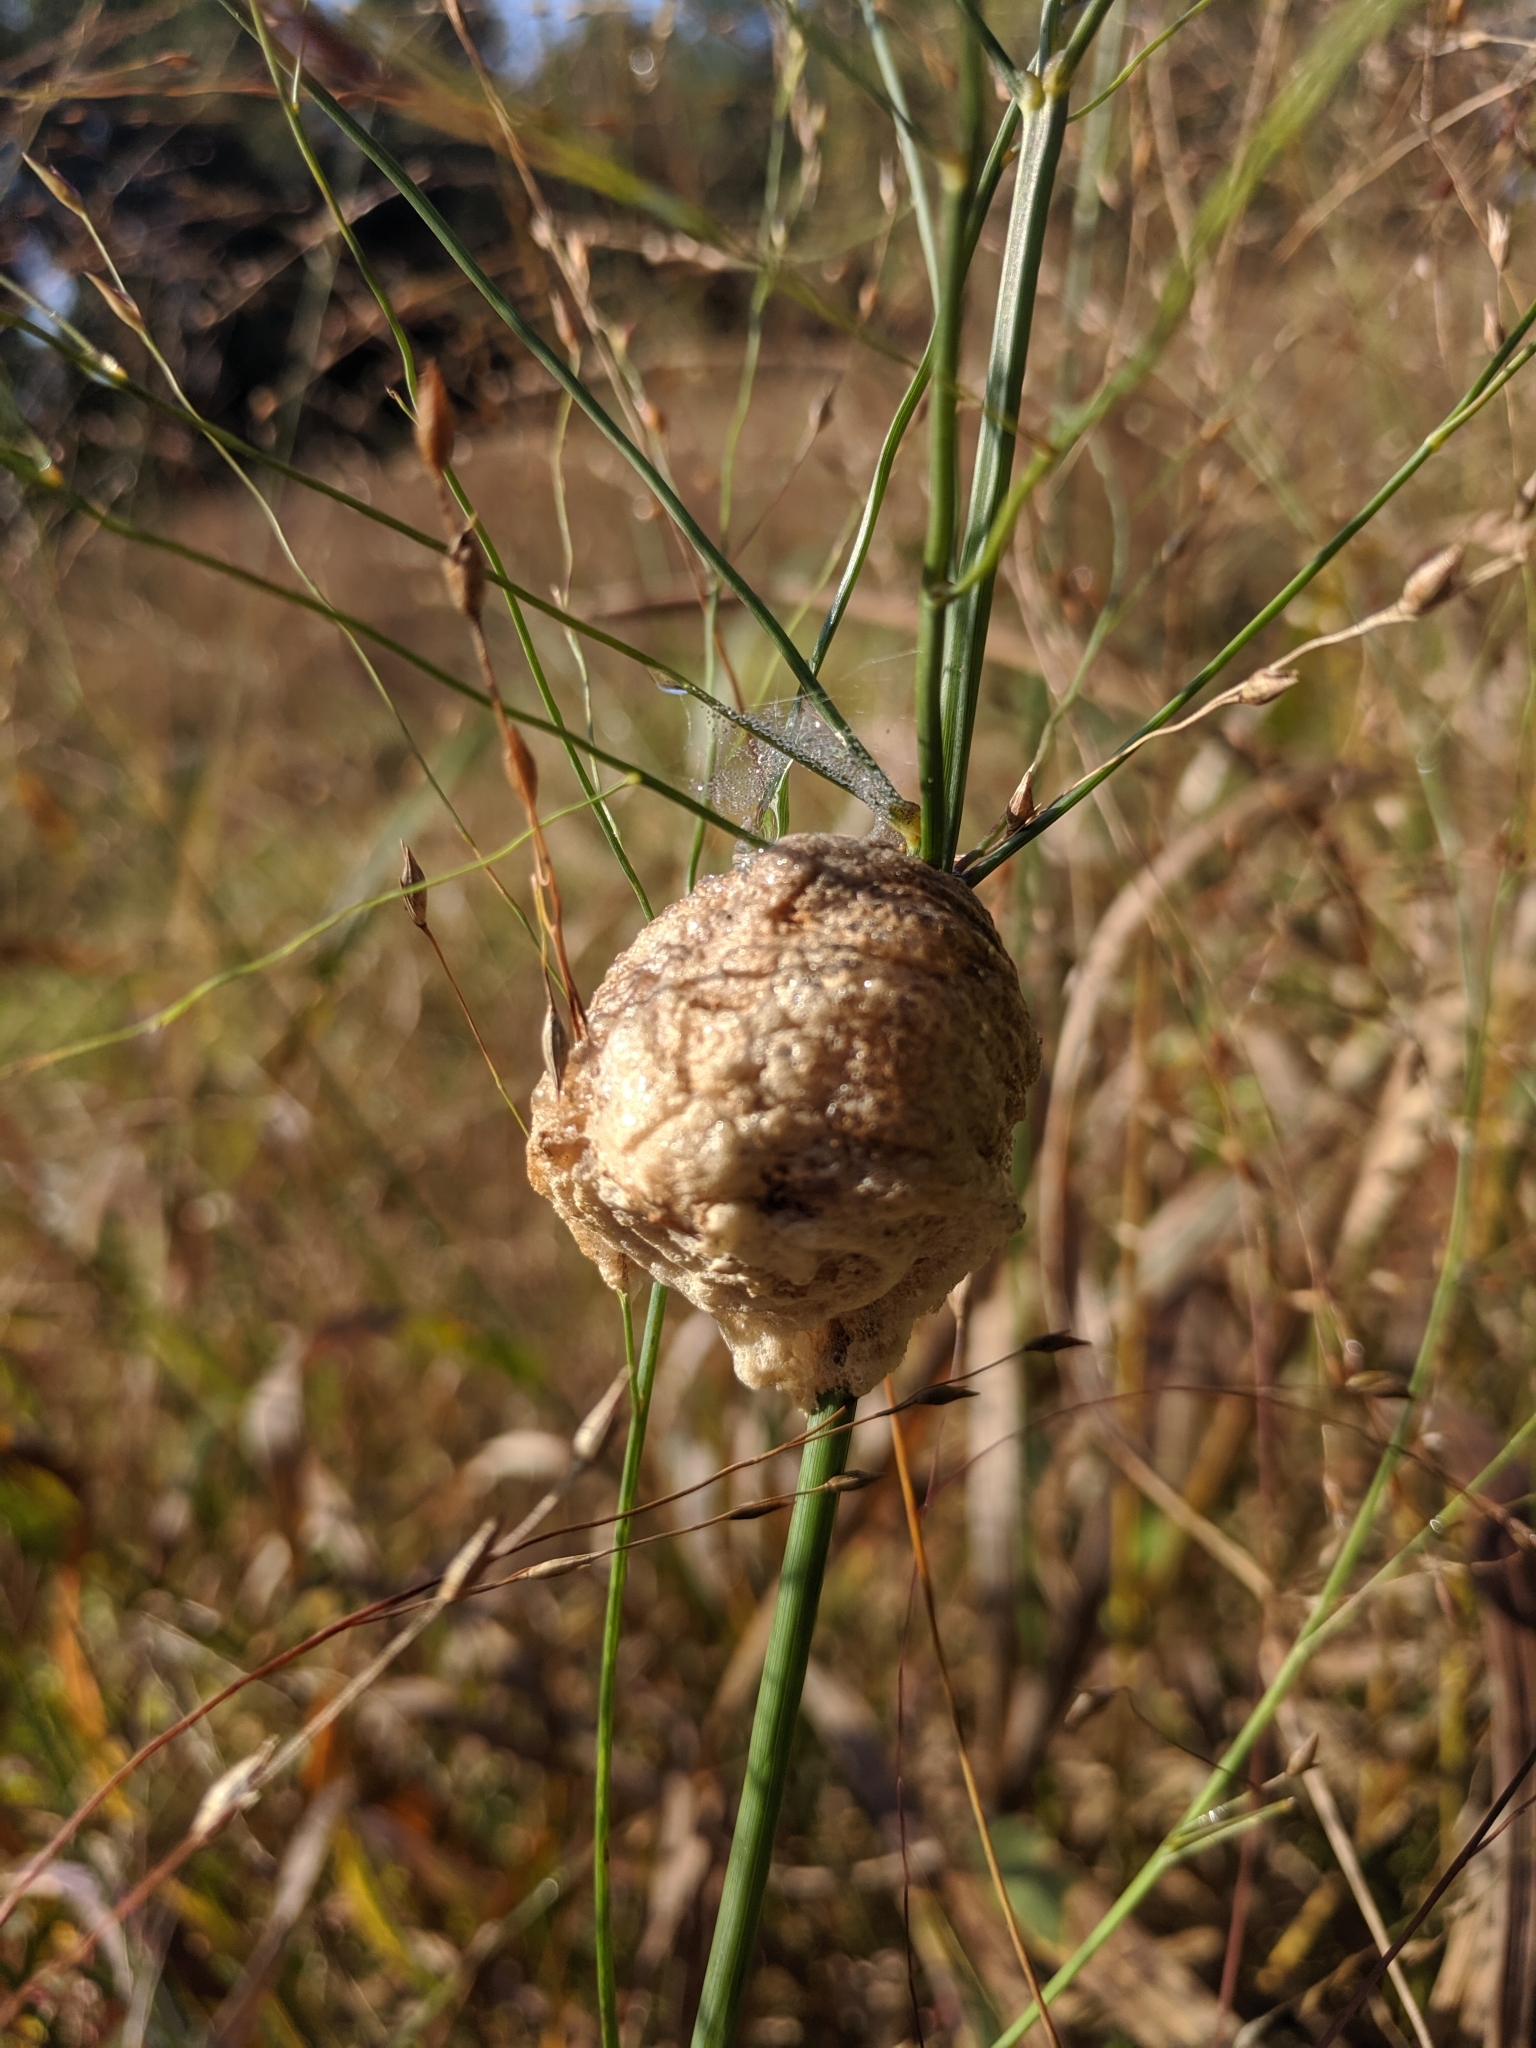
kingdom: Animalia
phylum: Arthropoda
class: Insecta
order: Mantodea
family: Mantidae
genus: Tenodera
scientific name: Tenodera sinensis
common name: Chinese mantis
